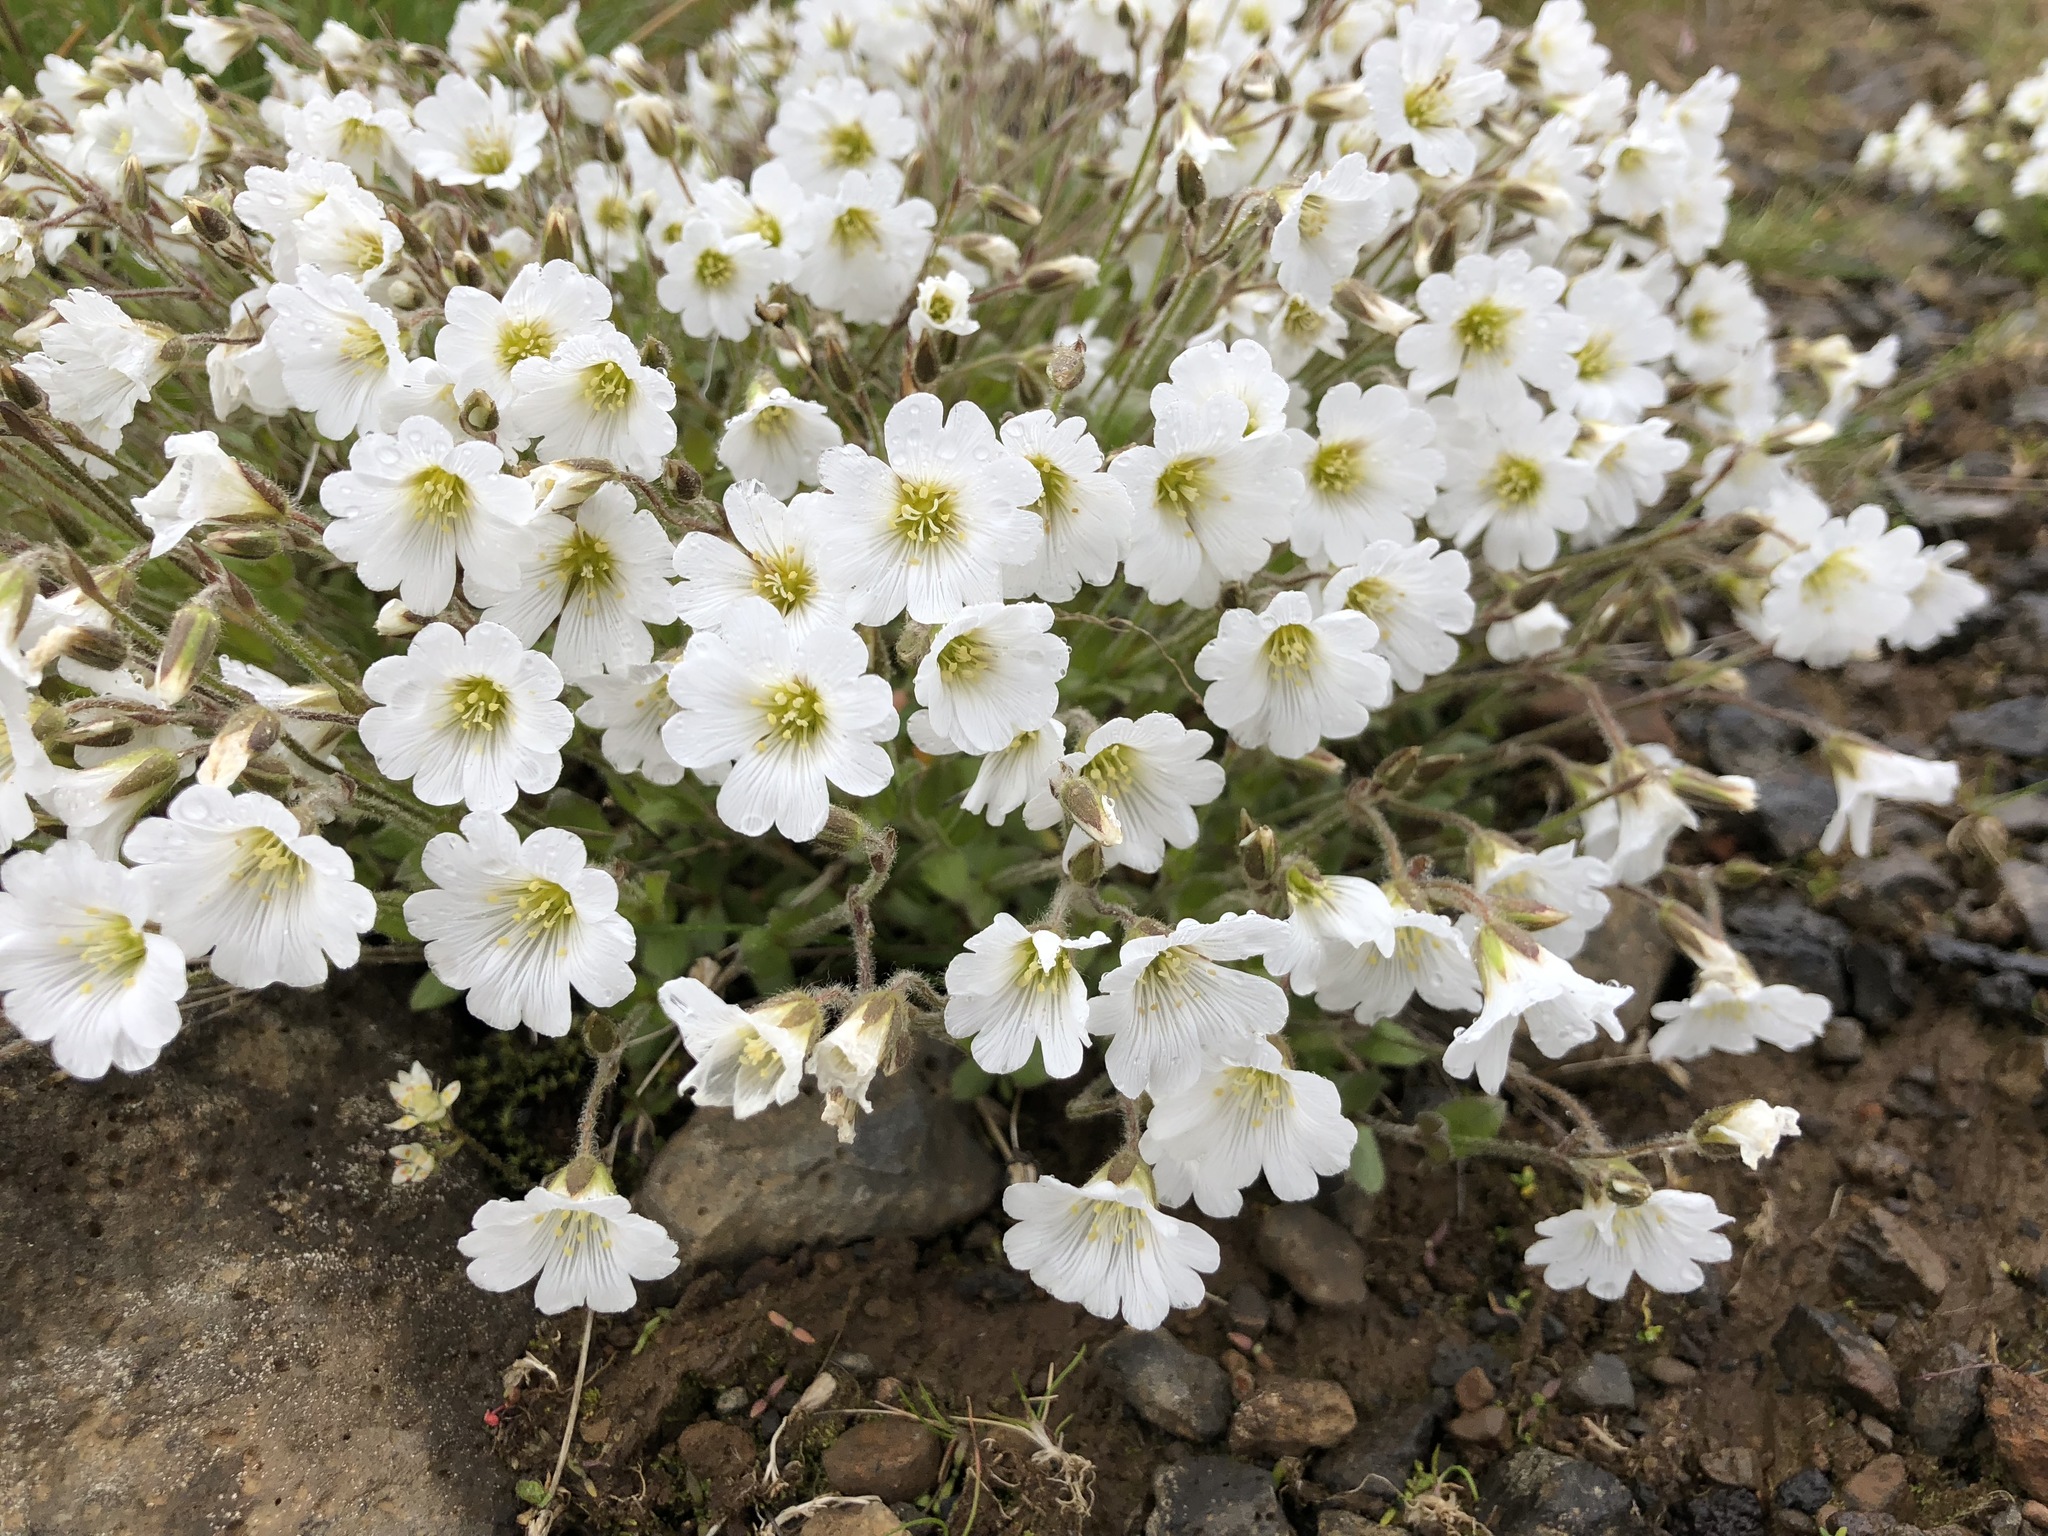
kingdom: Plantae
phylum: Tracheophyta
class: Magnoliopsida
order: Caryophyllales
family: Caryophyllaceae
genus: Cerastium
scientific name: Cerastium alpinum
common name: Alpine mouse-ear
